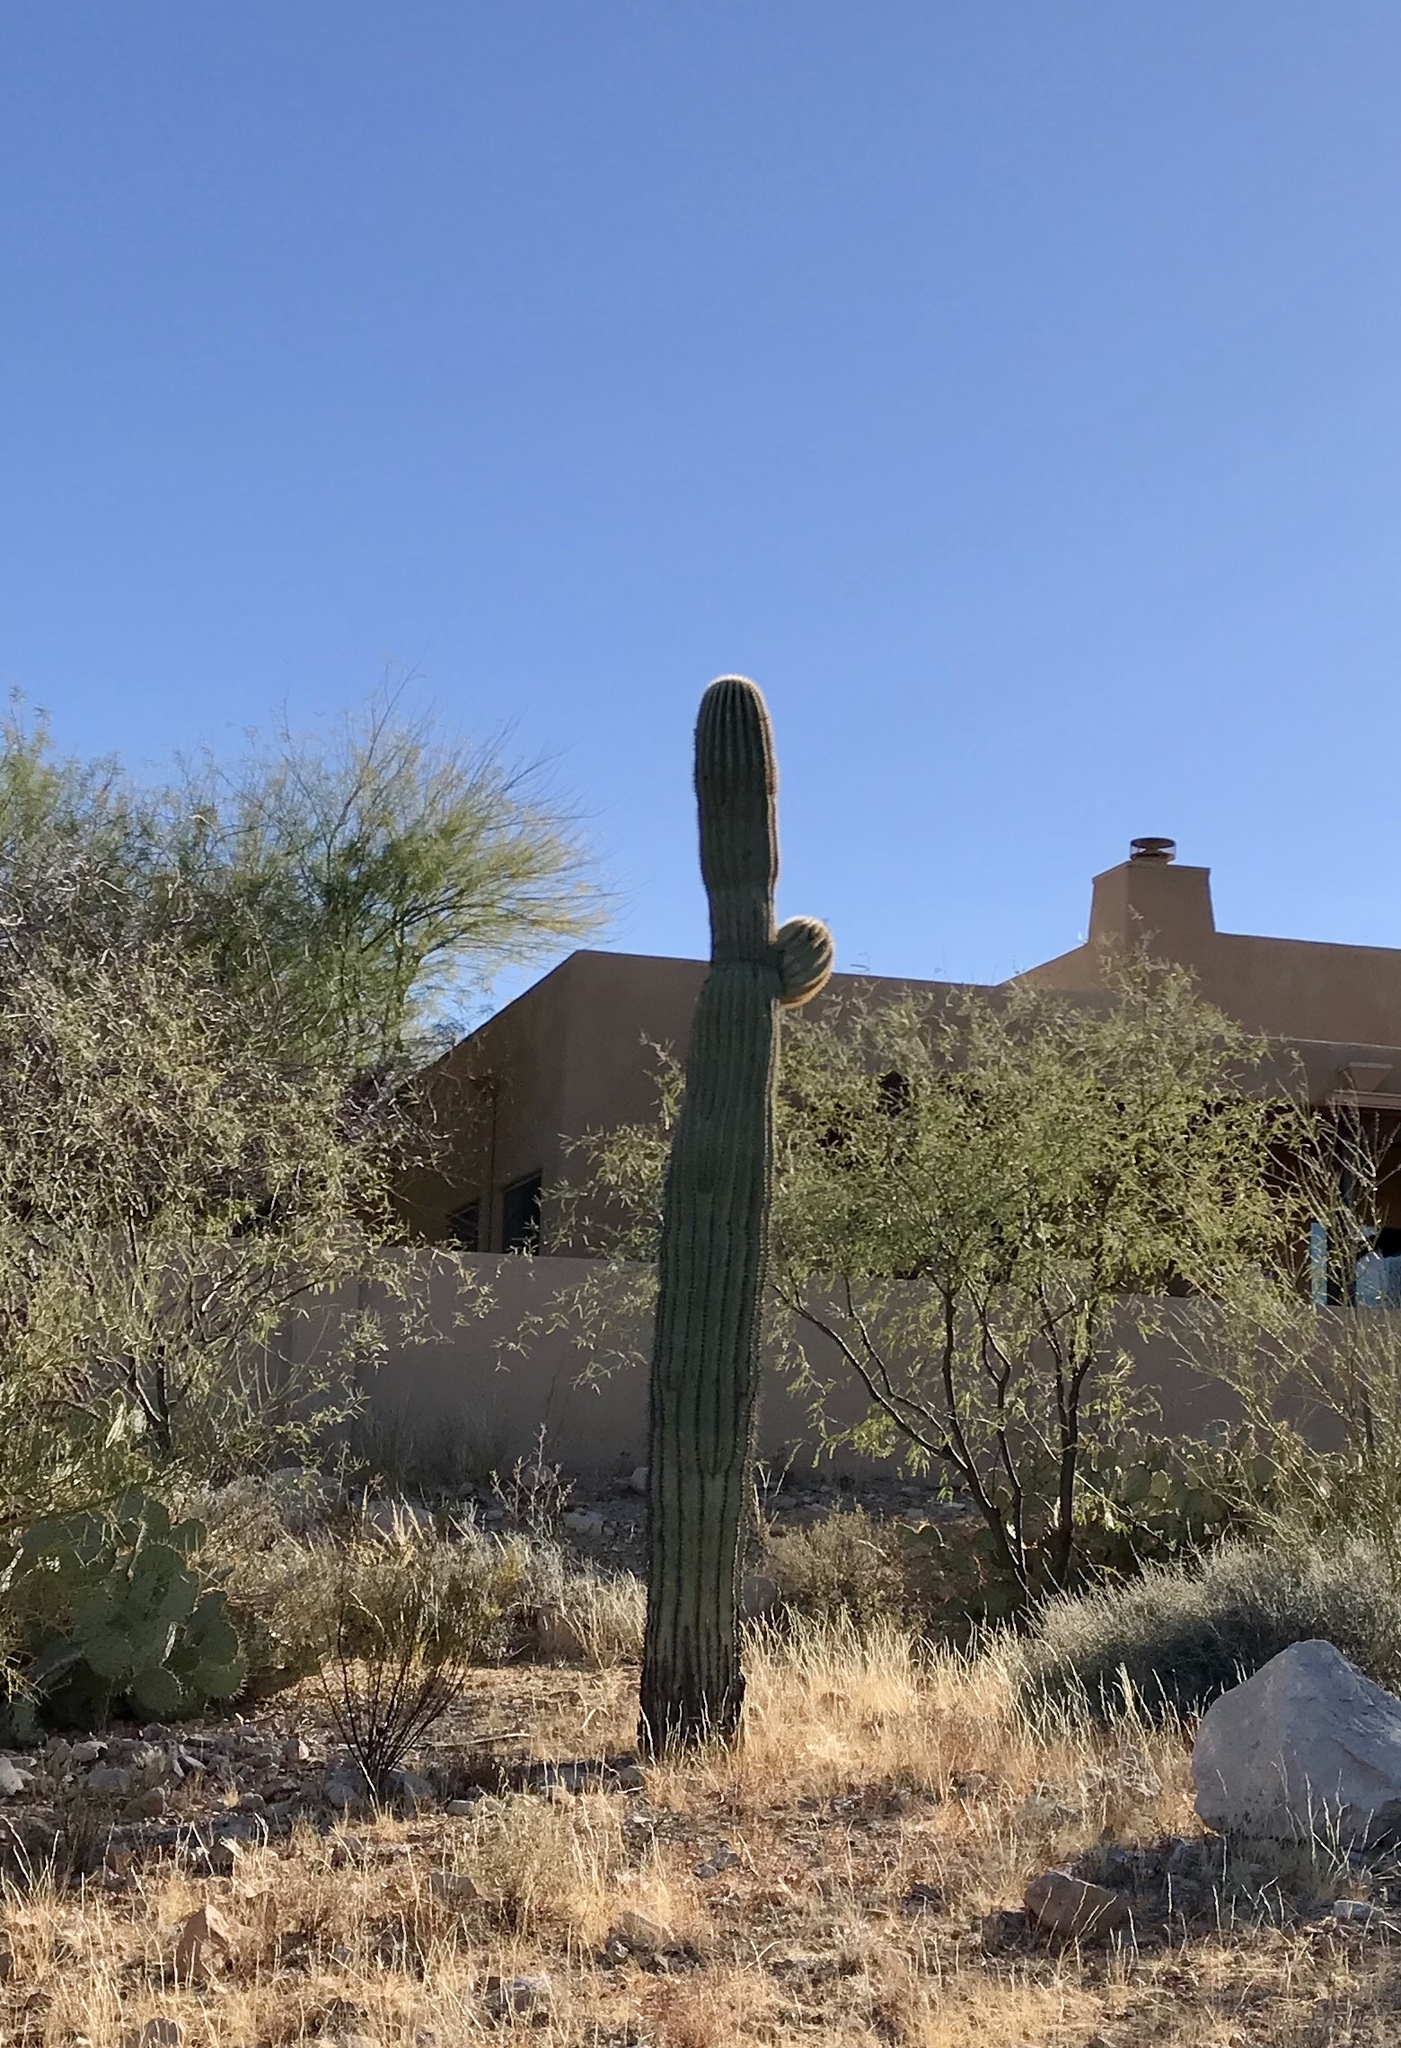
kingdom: Plantae
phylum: Tracheophyta
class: Magnoliopsida
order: Caryophyllales
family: Cactaceae
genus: Carnegiea
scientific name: Carnegiea gigantea
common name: Saguaro
